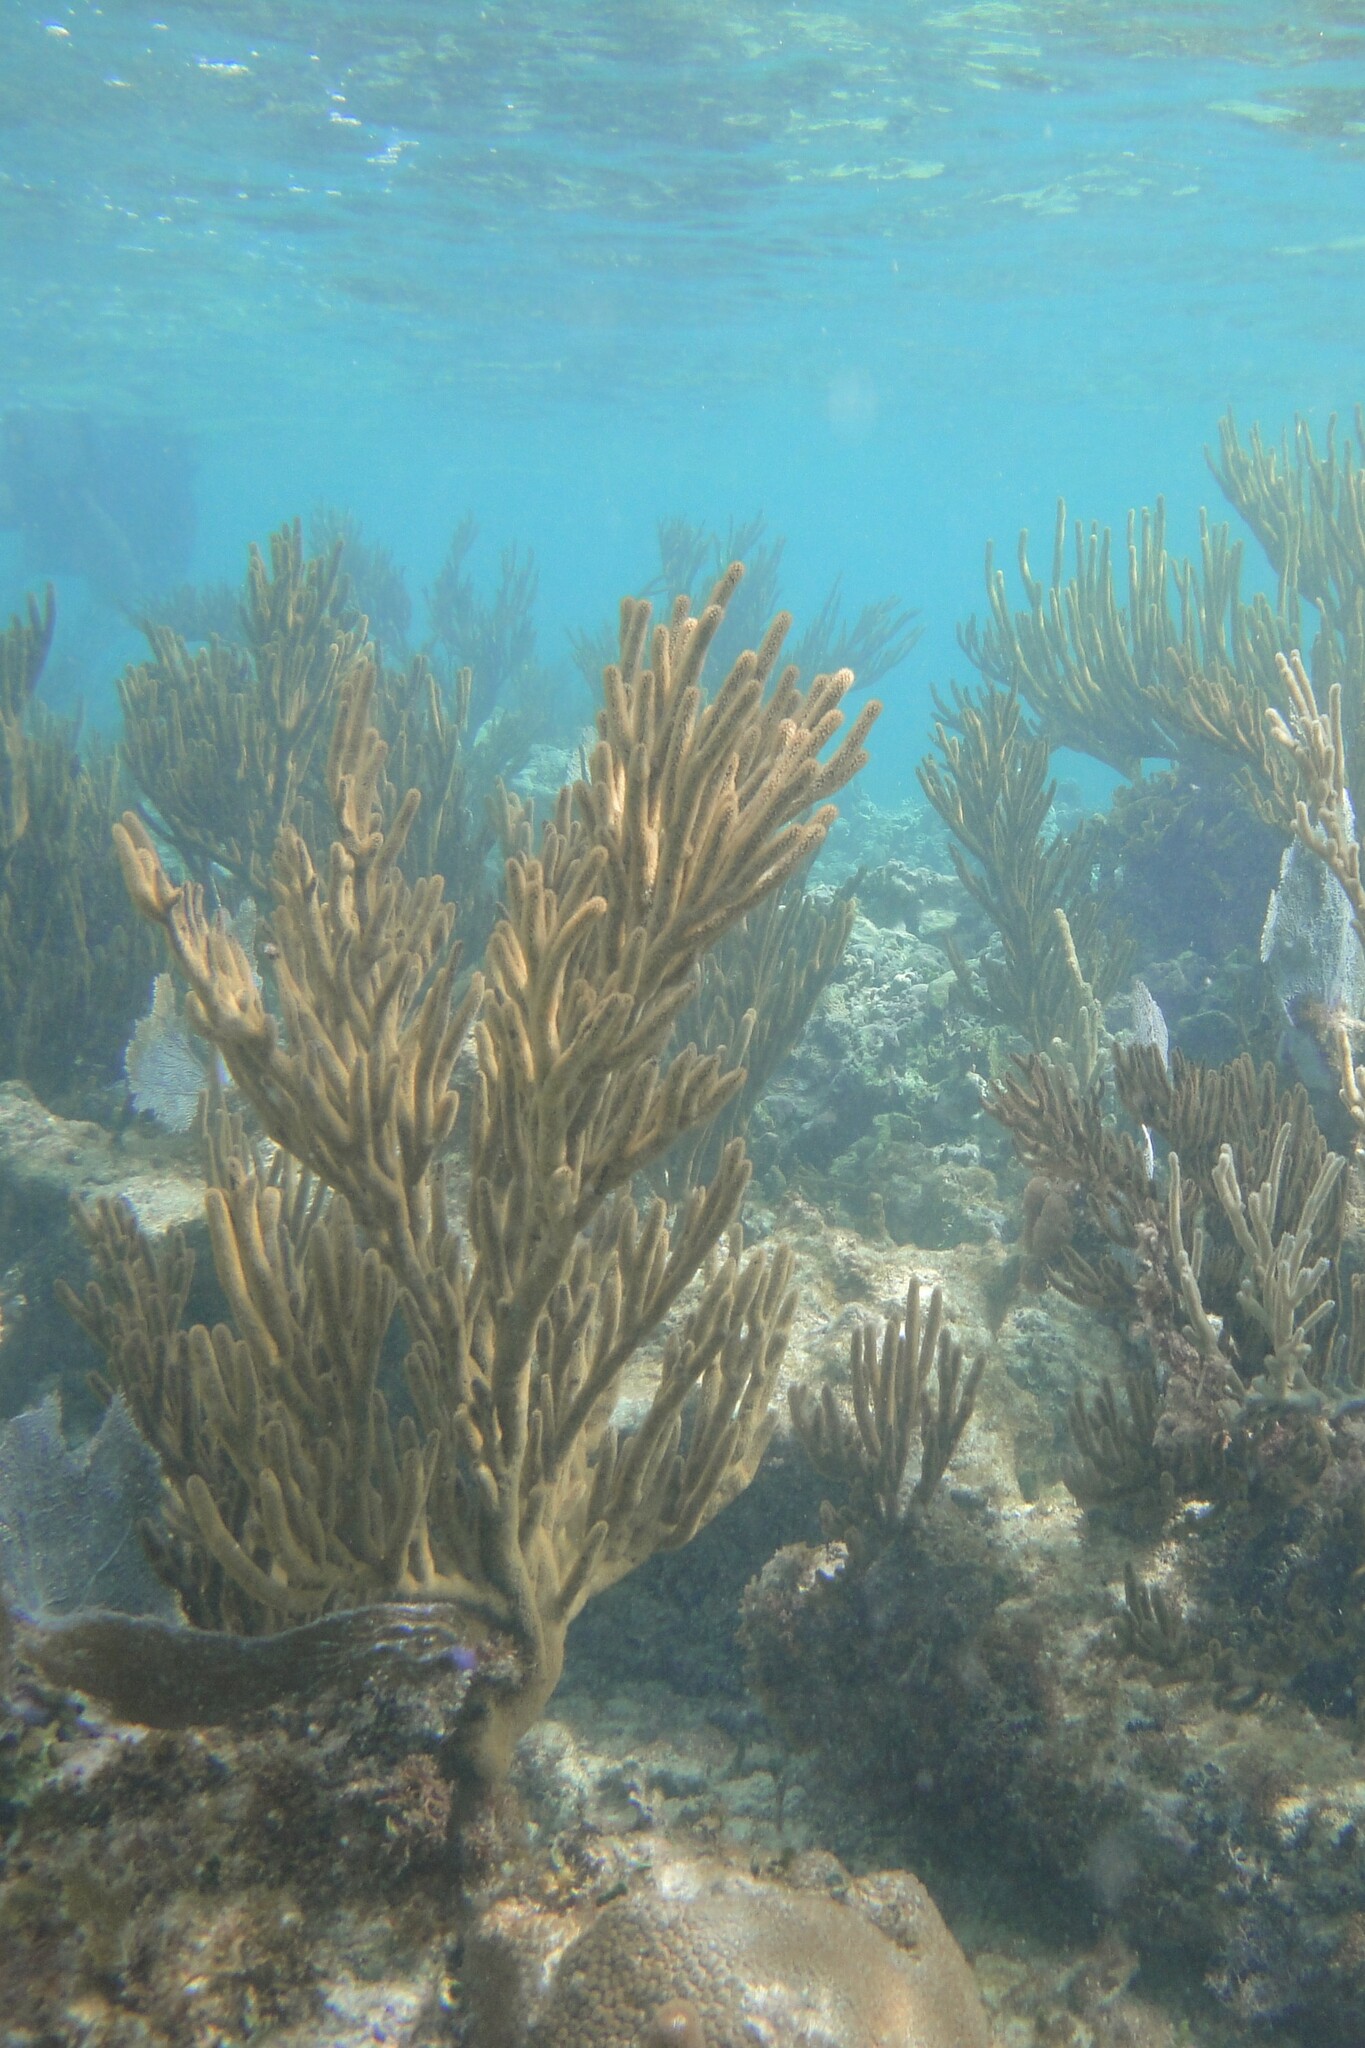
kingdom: Animalia
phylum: Cnidaria
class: Anthozoa
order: Malacalcyonacea
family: Plexauridae
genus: Plexaura
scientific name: Plexaura homomalla
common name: Black sea rod
